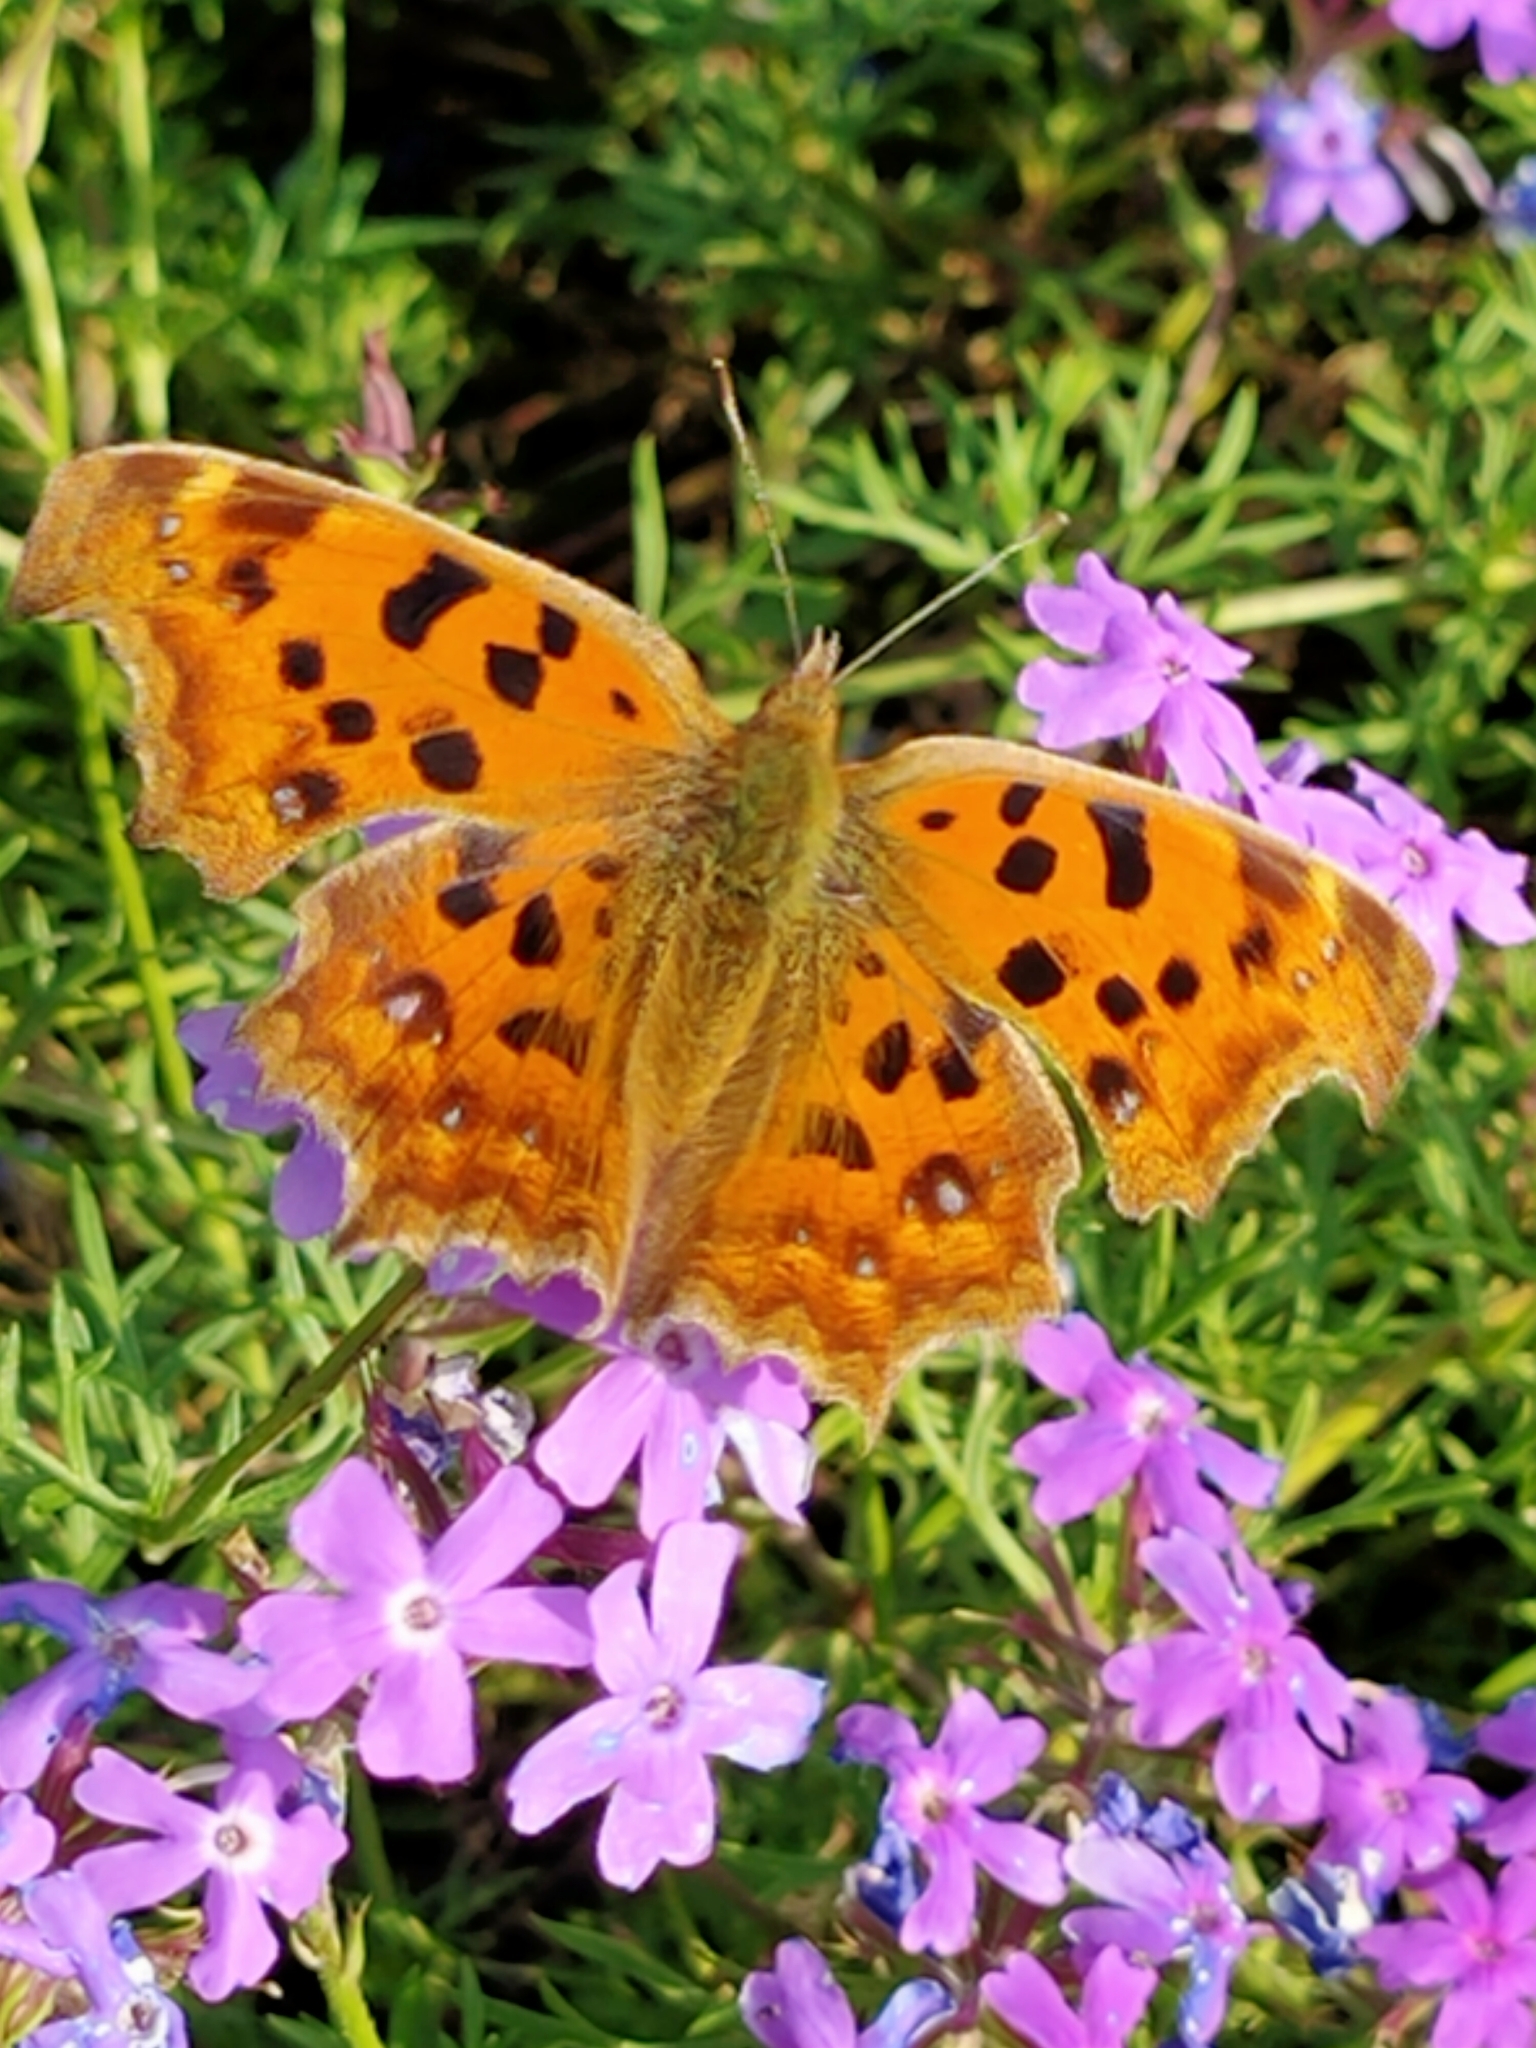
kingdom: Animalia
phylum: Arthropoda
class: Insecta
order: Lepidoptera
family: Nymphalidae
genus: Polygonia
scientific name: Polygonia c-aureum
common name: Asian comma
